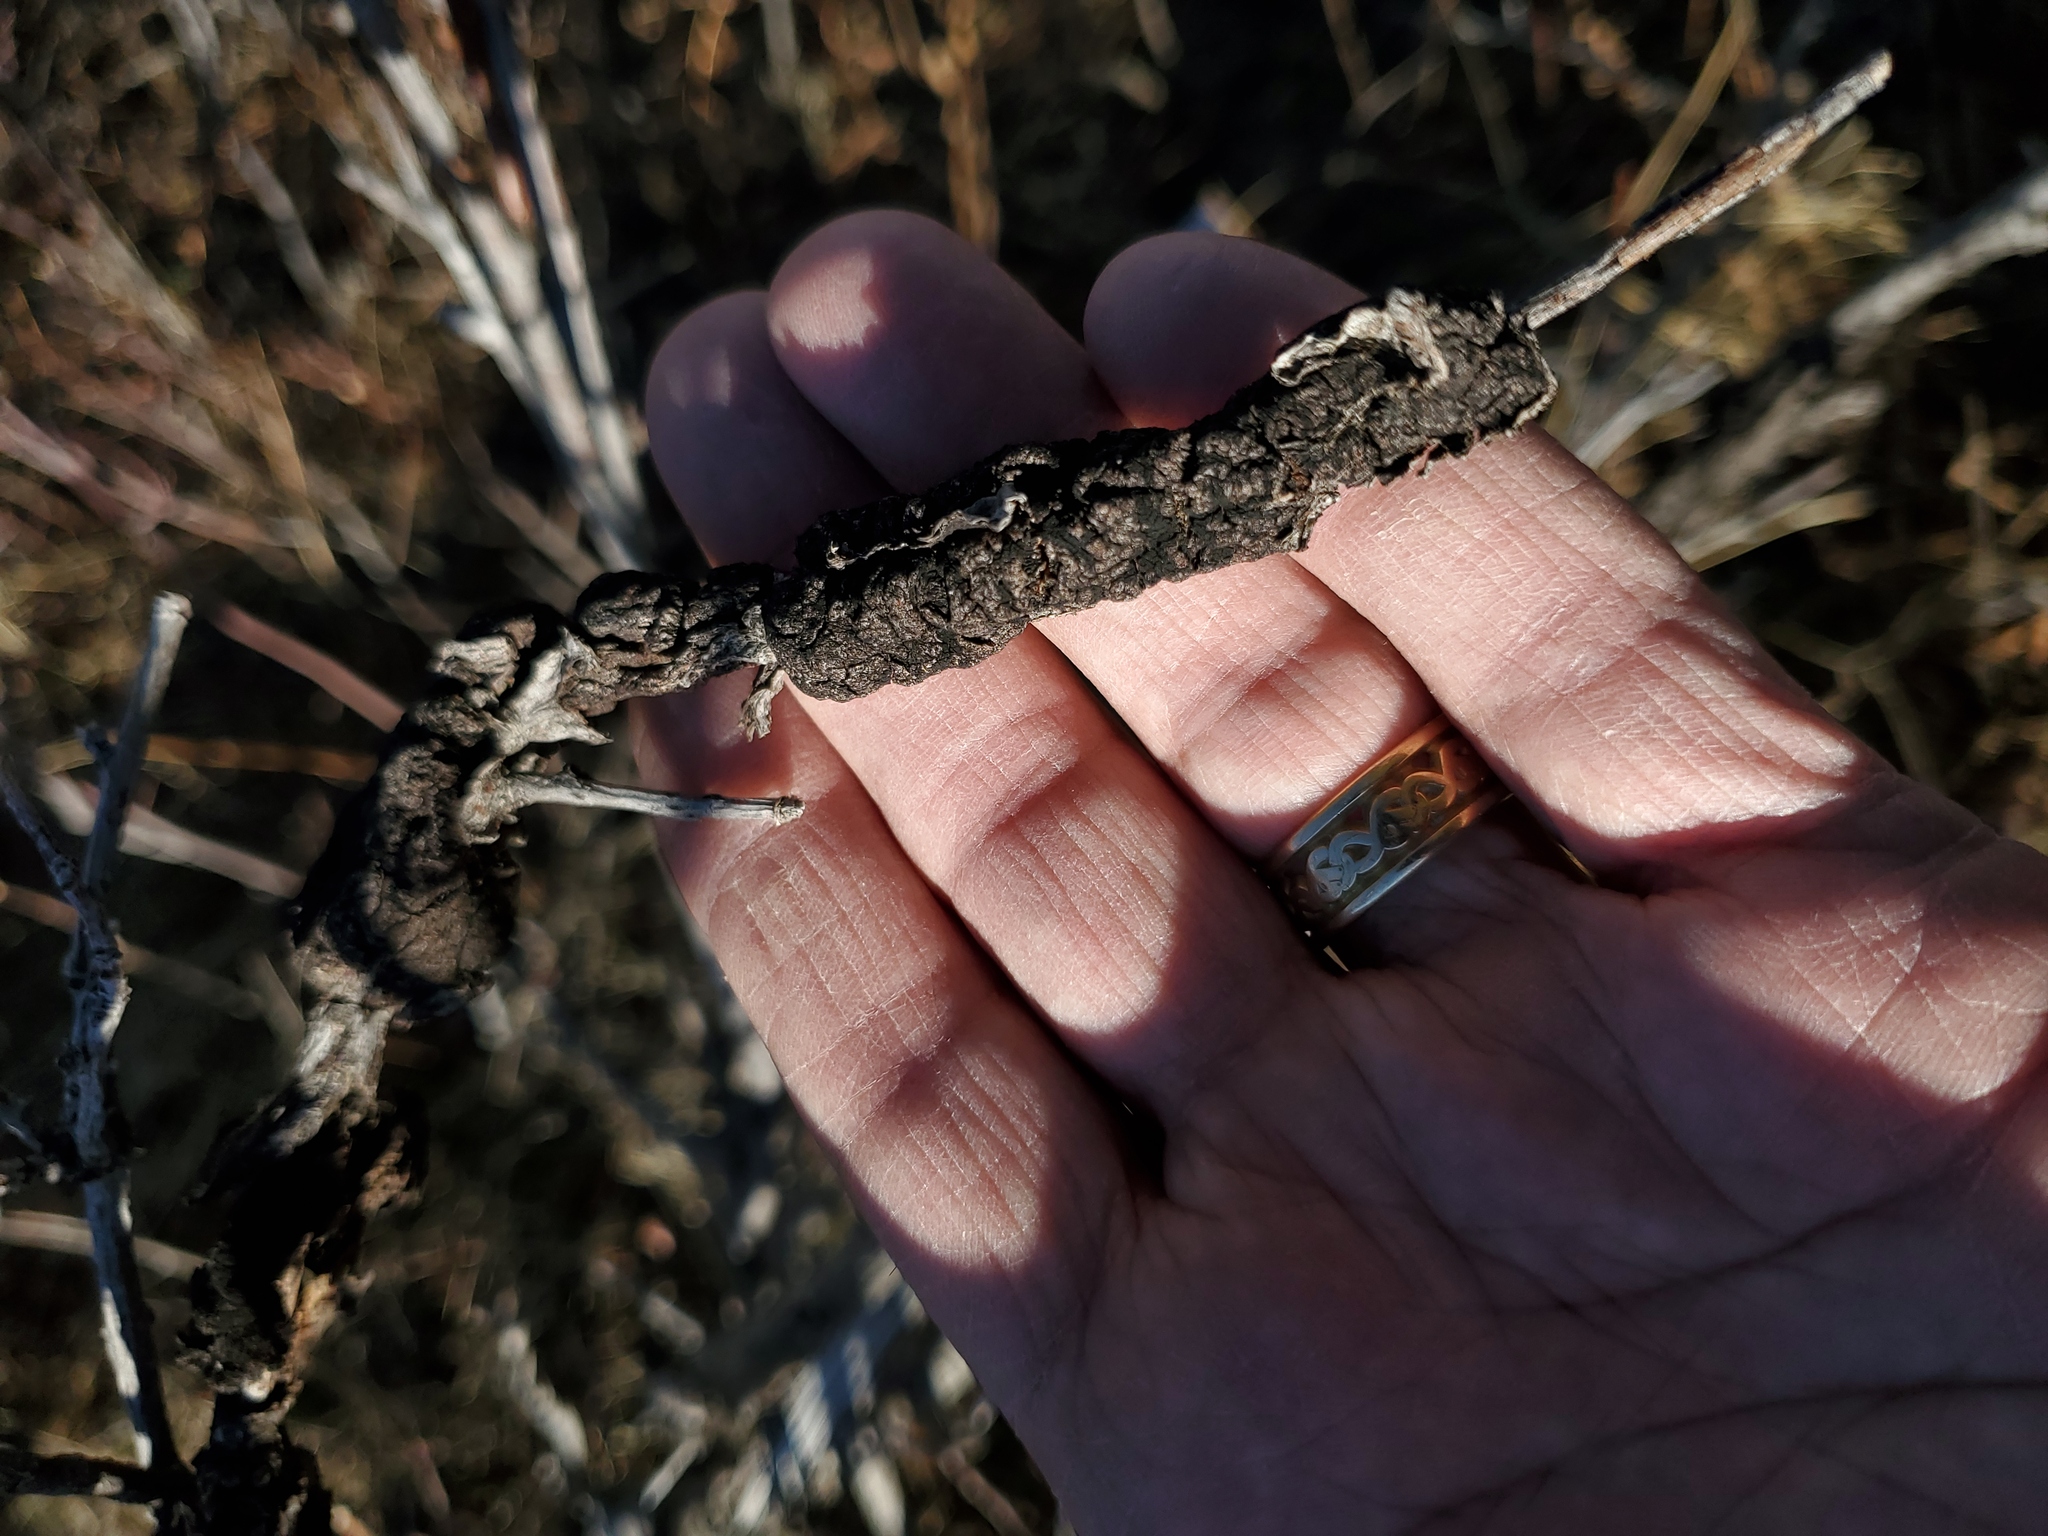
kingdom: Fungi
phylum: Ascomycota
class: Dothideomycetes
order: Venturiales
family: Venturiaceae
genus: Apiosporina
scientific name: Apiosporina morbosa
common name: Black knot
